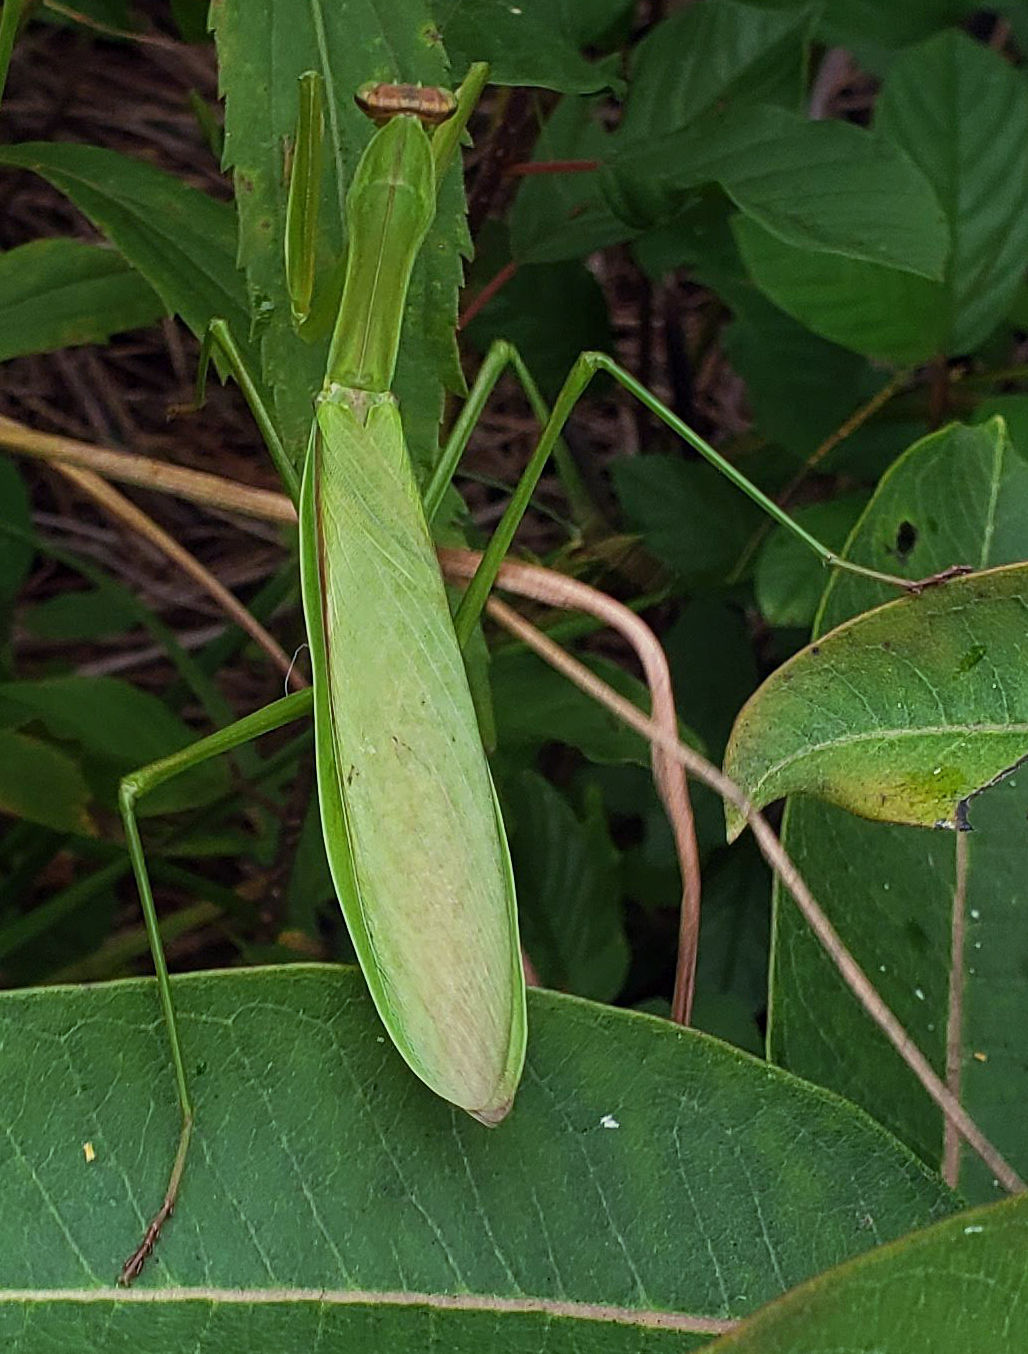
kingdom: Animalia
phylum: Arthropoda
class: Insecta
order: Mantodea
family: Mantidae
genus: Tenodera
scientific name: Tenodera sinensis
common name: Chinese mantis
